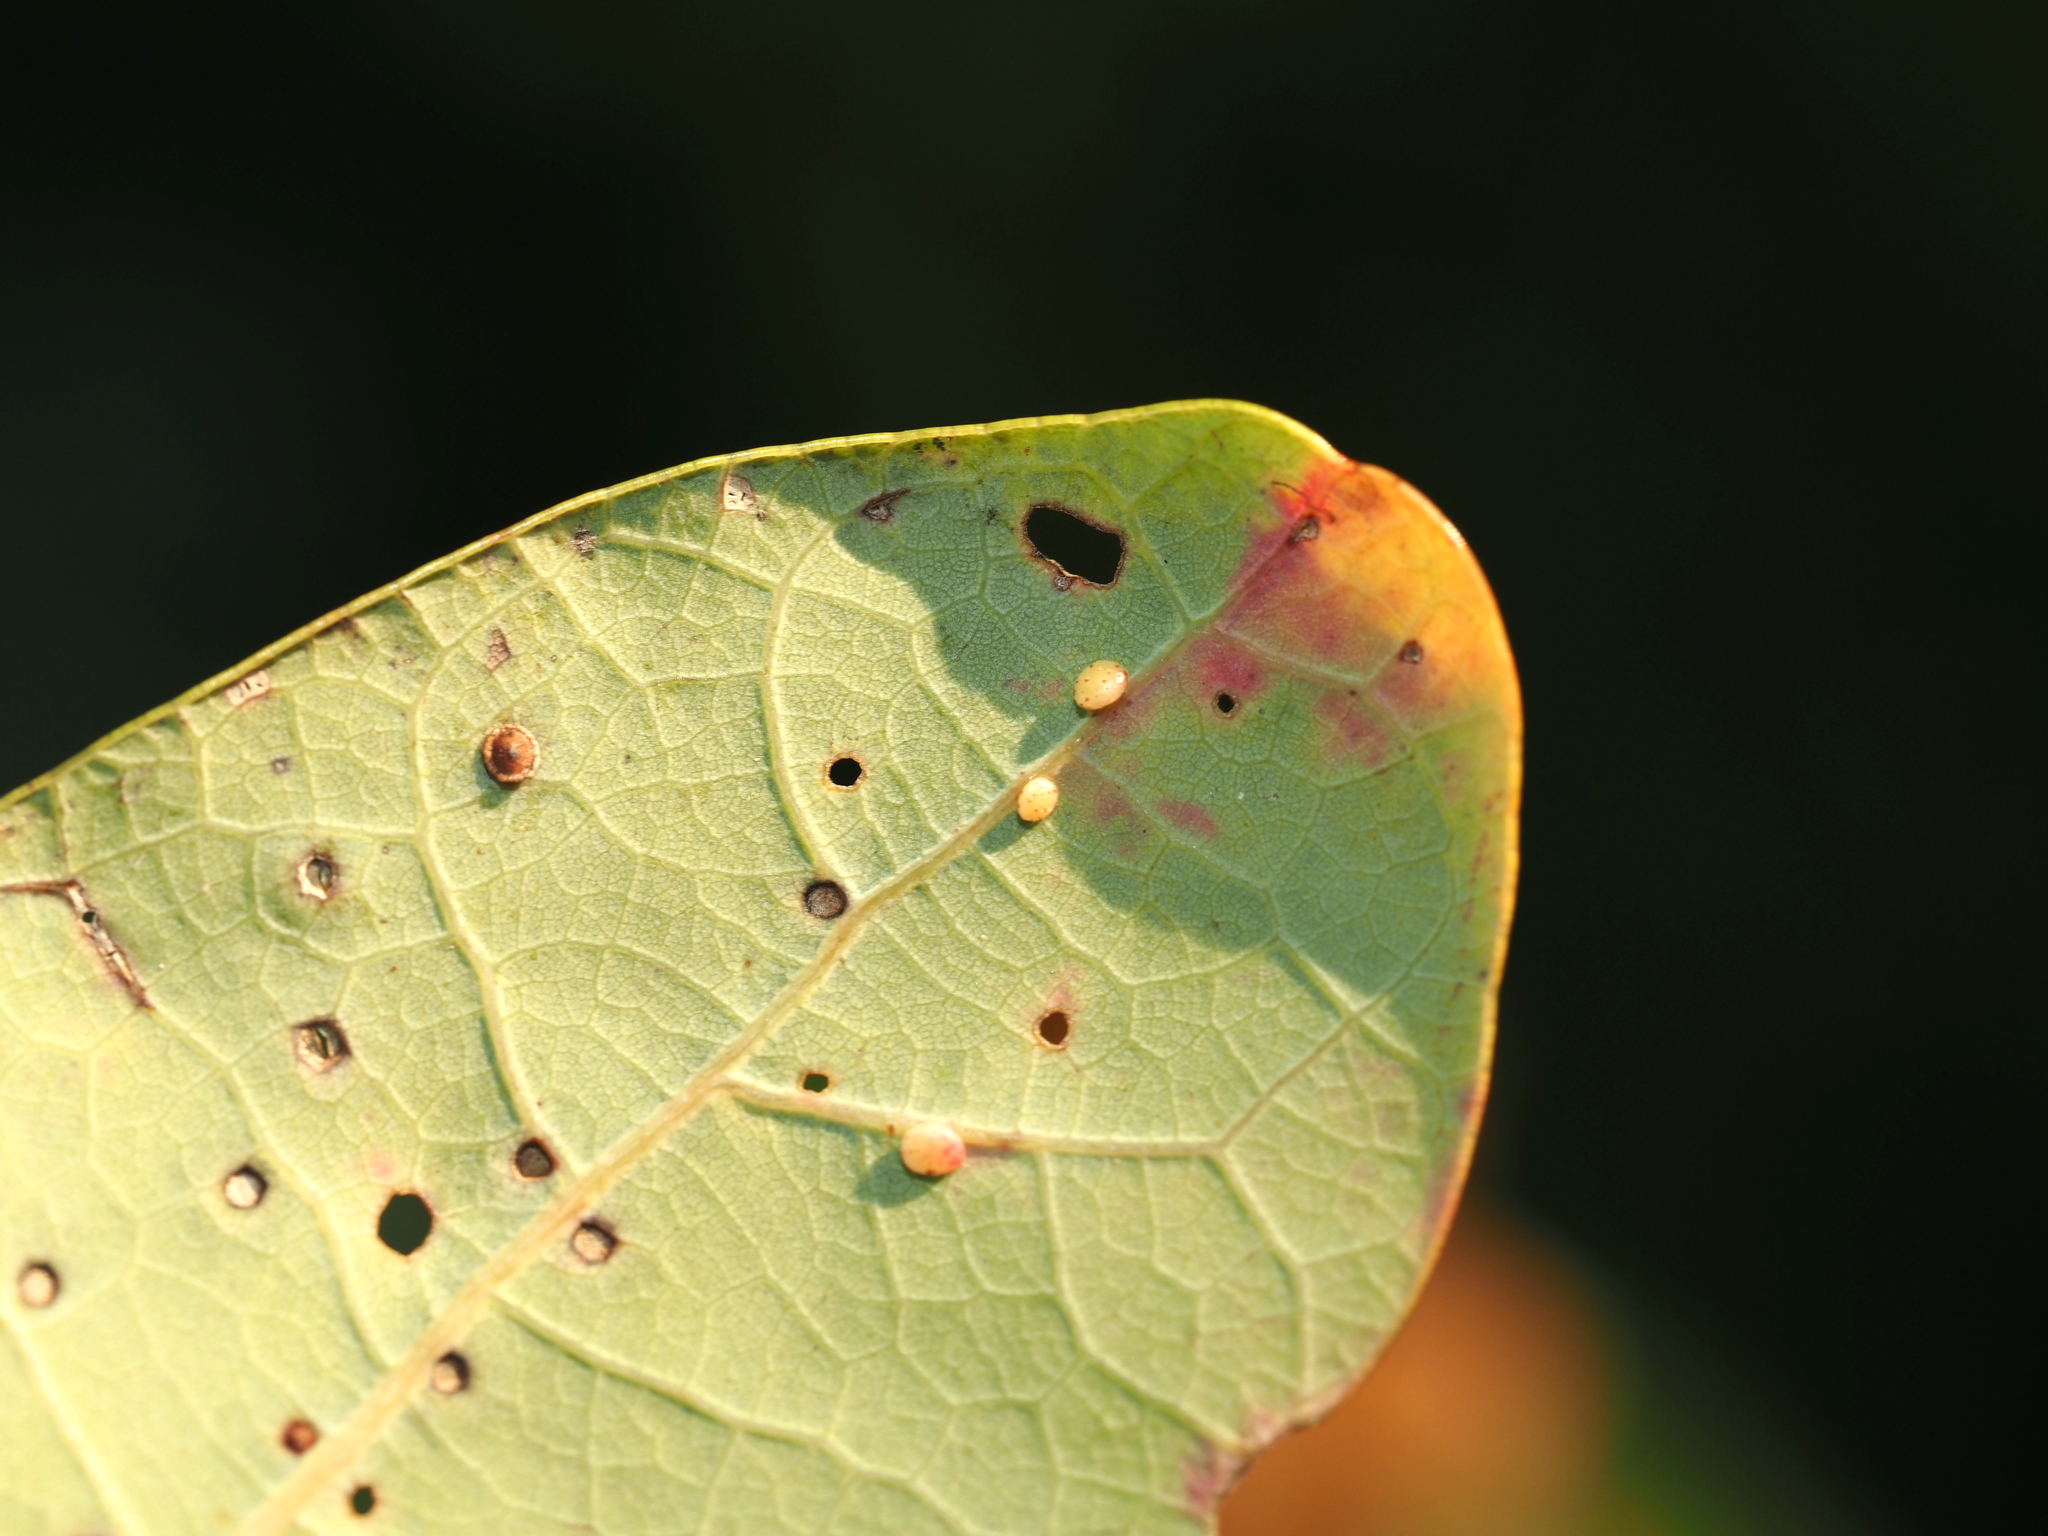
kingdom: Animalia
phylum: Arthropoda
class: Insecta
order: Hymenoptera
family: Cynipidae
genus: Phylloteras
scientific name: Phylloteras
